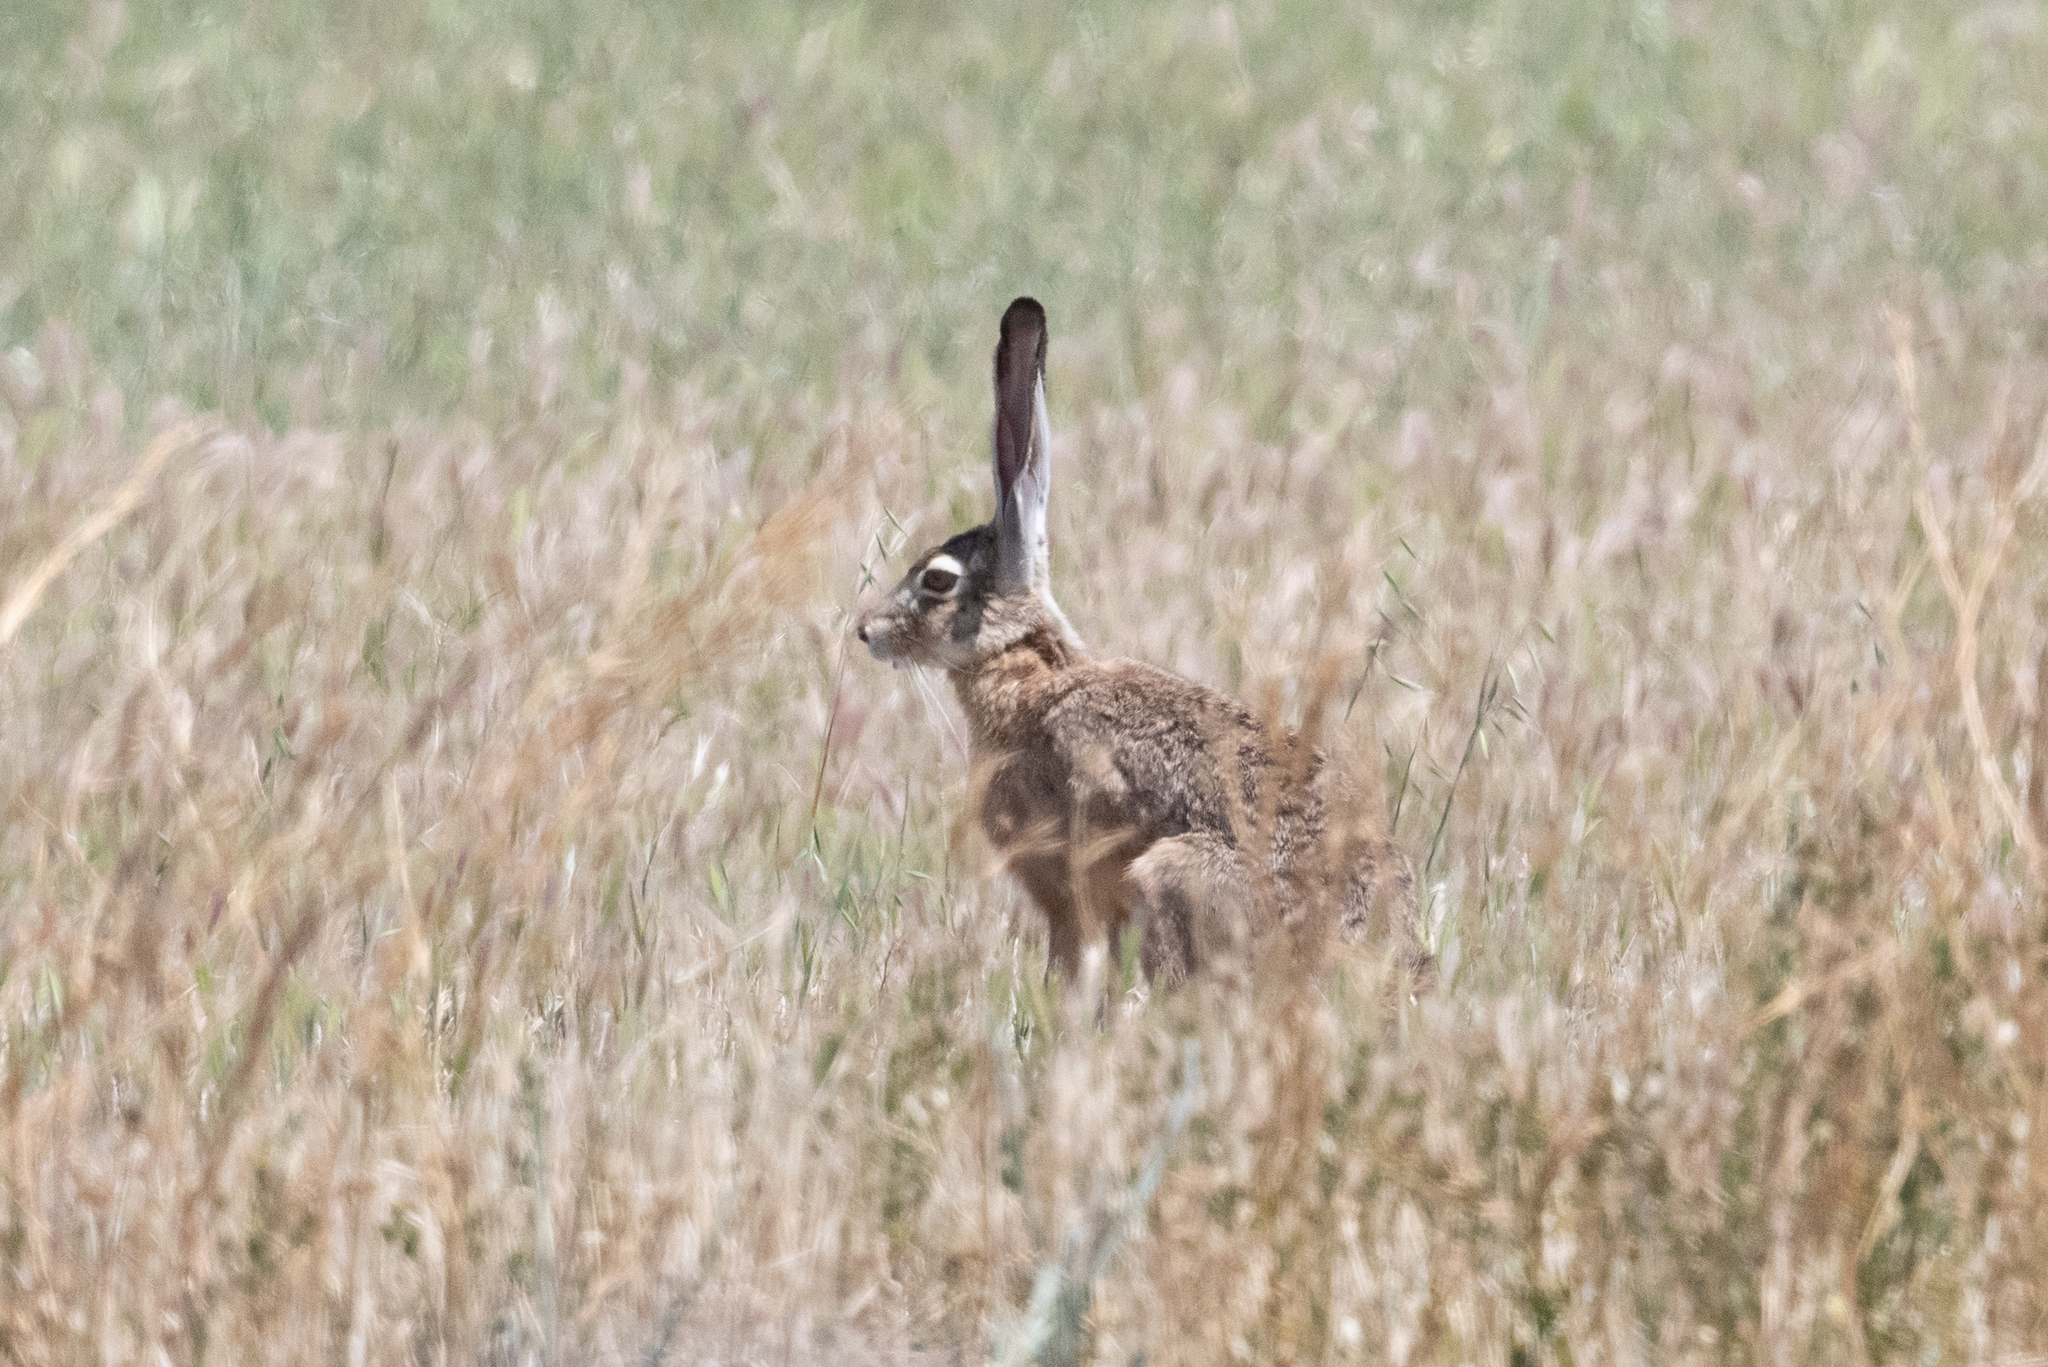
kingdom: Animalia
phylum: Chordata
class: Mammalia
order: Lagomorpha
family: Leporidae
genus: Lepus
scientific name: Lepus californicus
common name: Black-tailed jackrabbit
